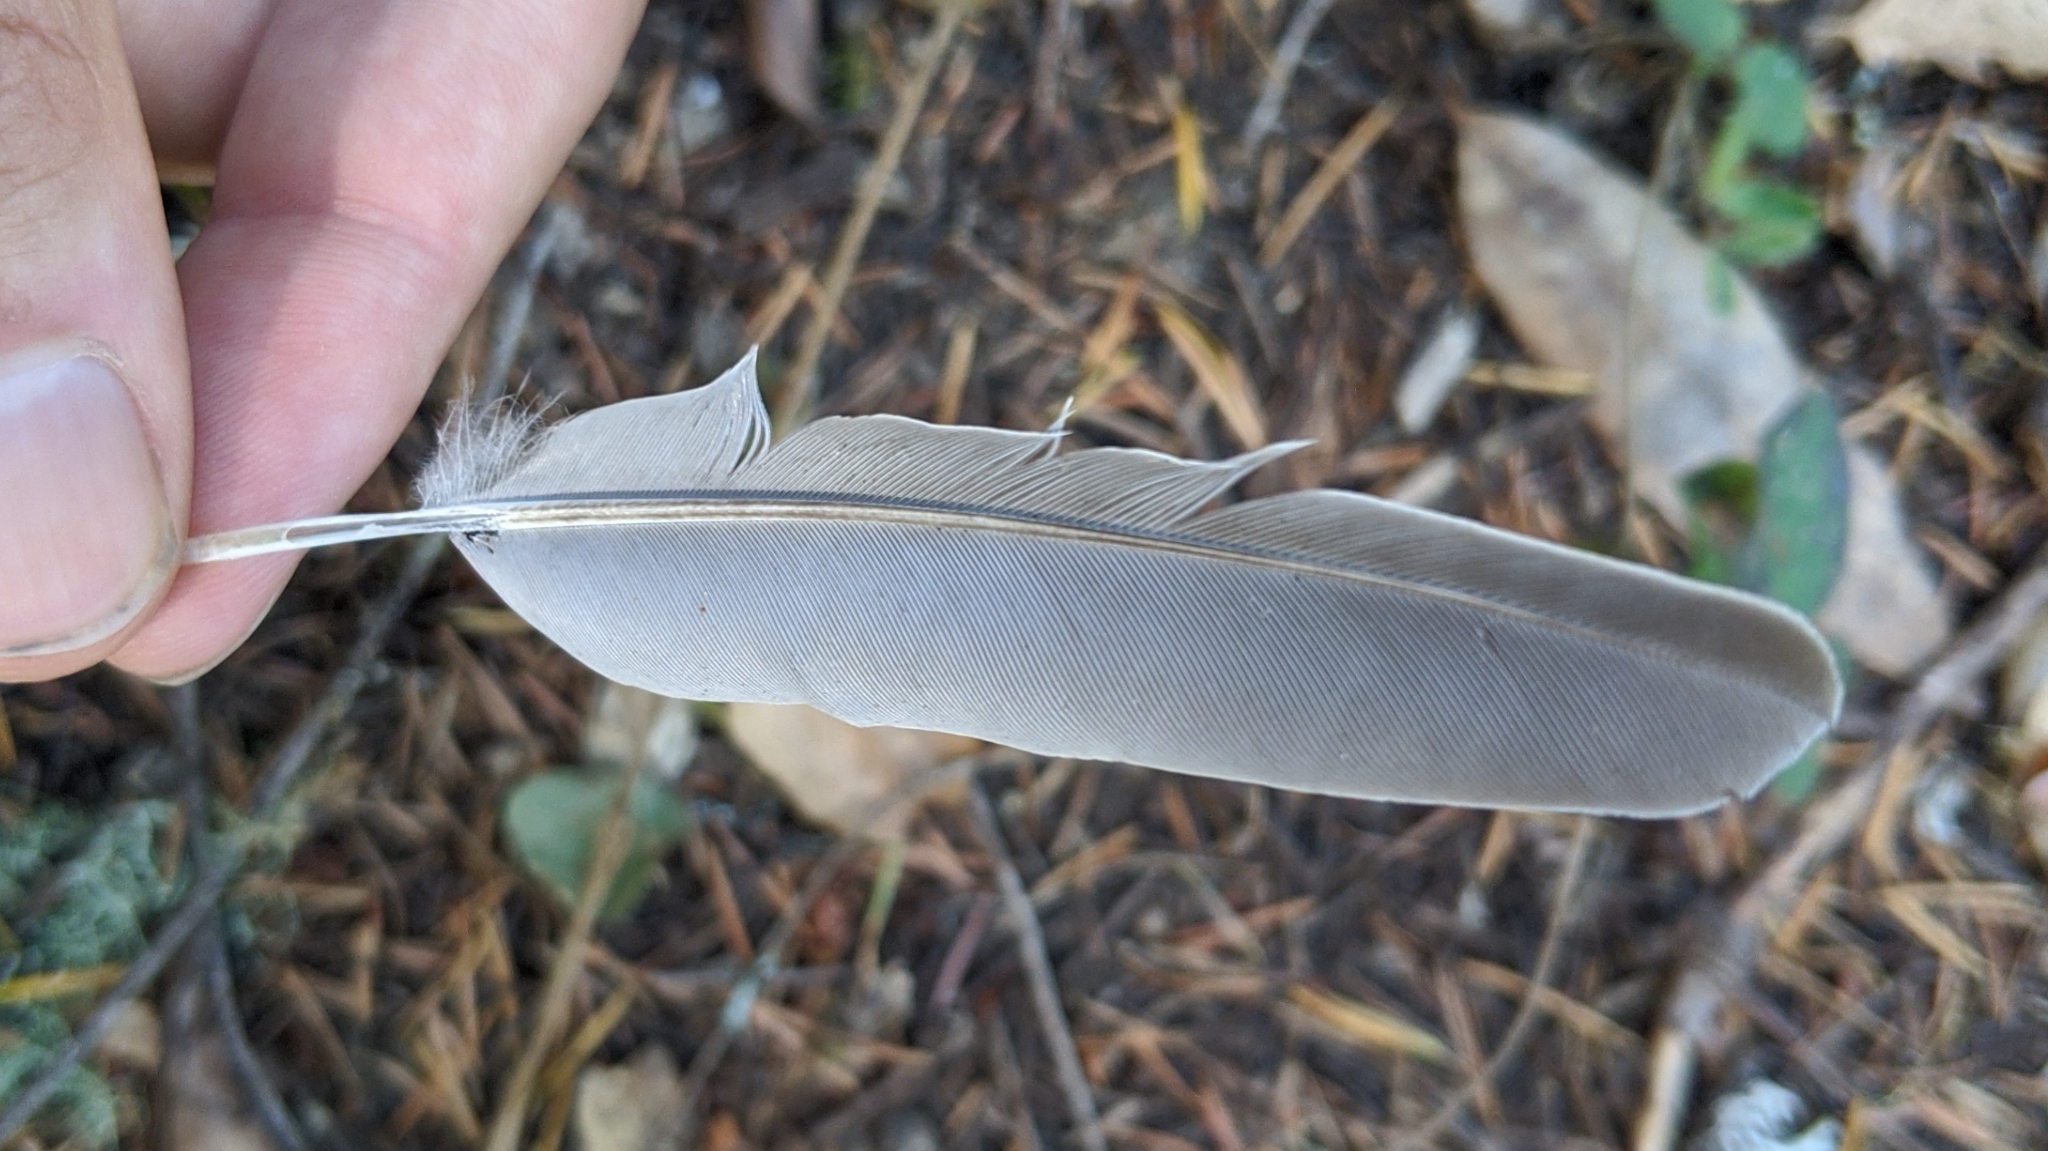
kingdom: Animalia
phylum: Chordata
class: Aves
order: Columbiformes
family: Columbidae
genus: Zenaida
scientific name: Zenaida macroura
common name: Mourning dove
